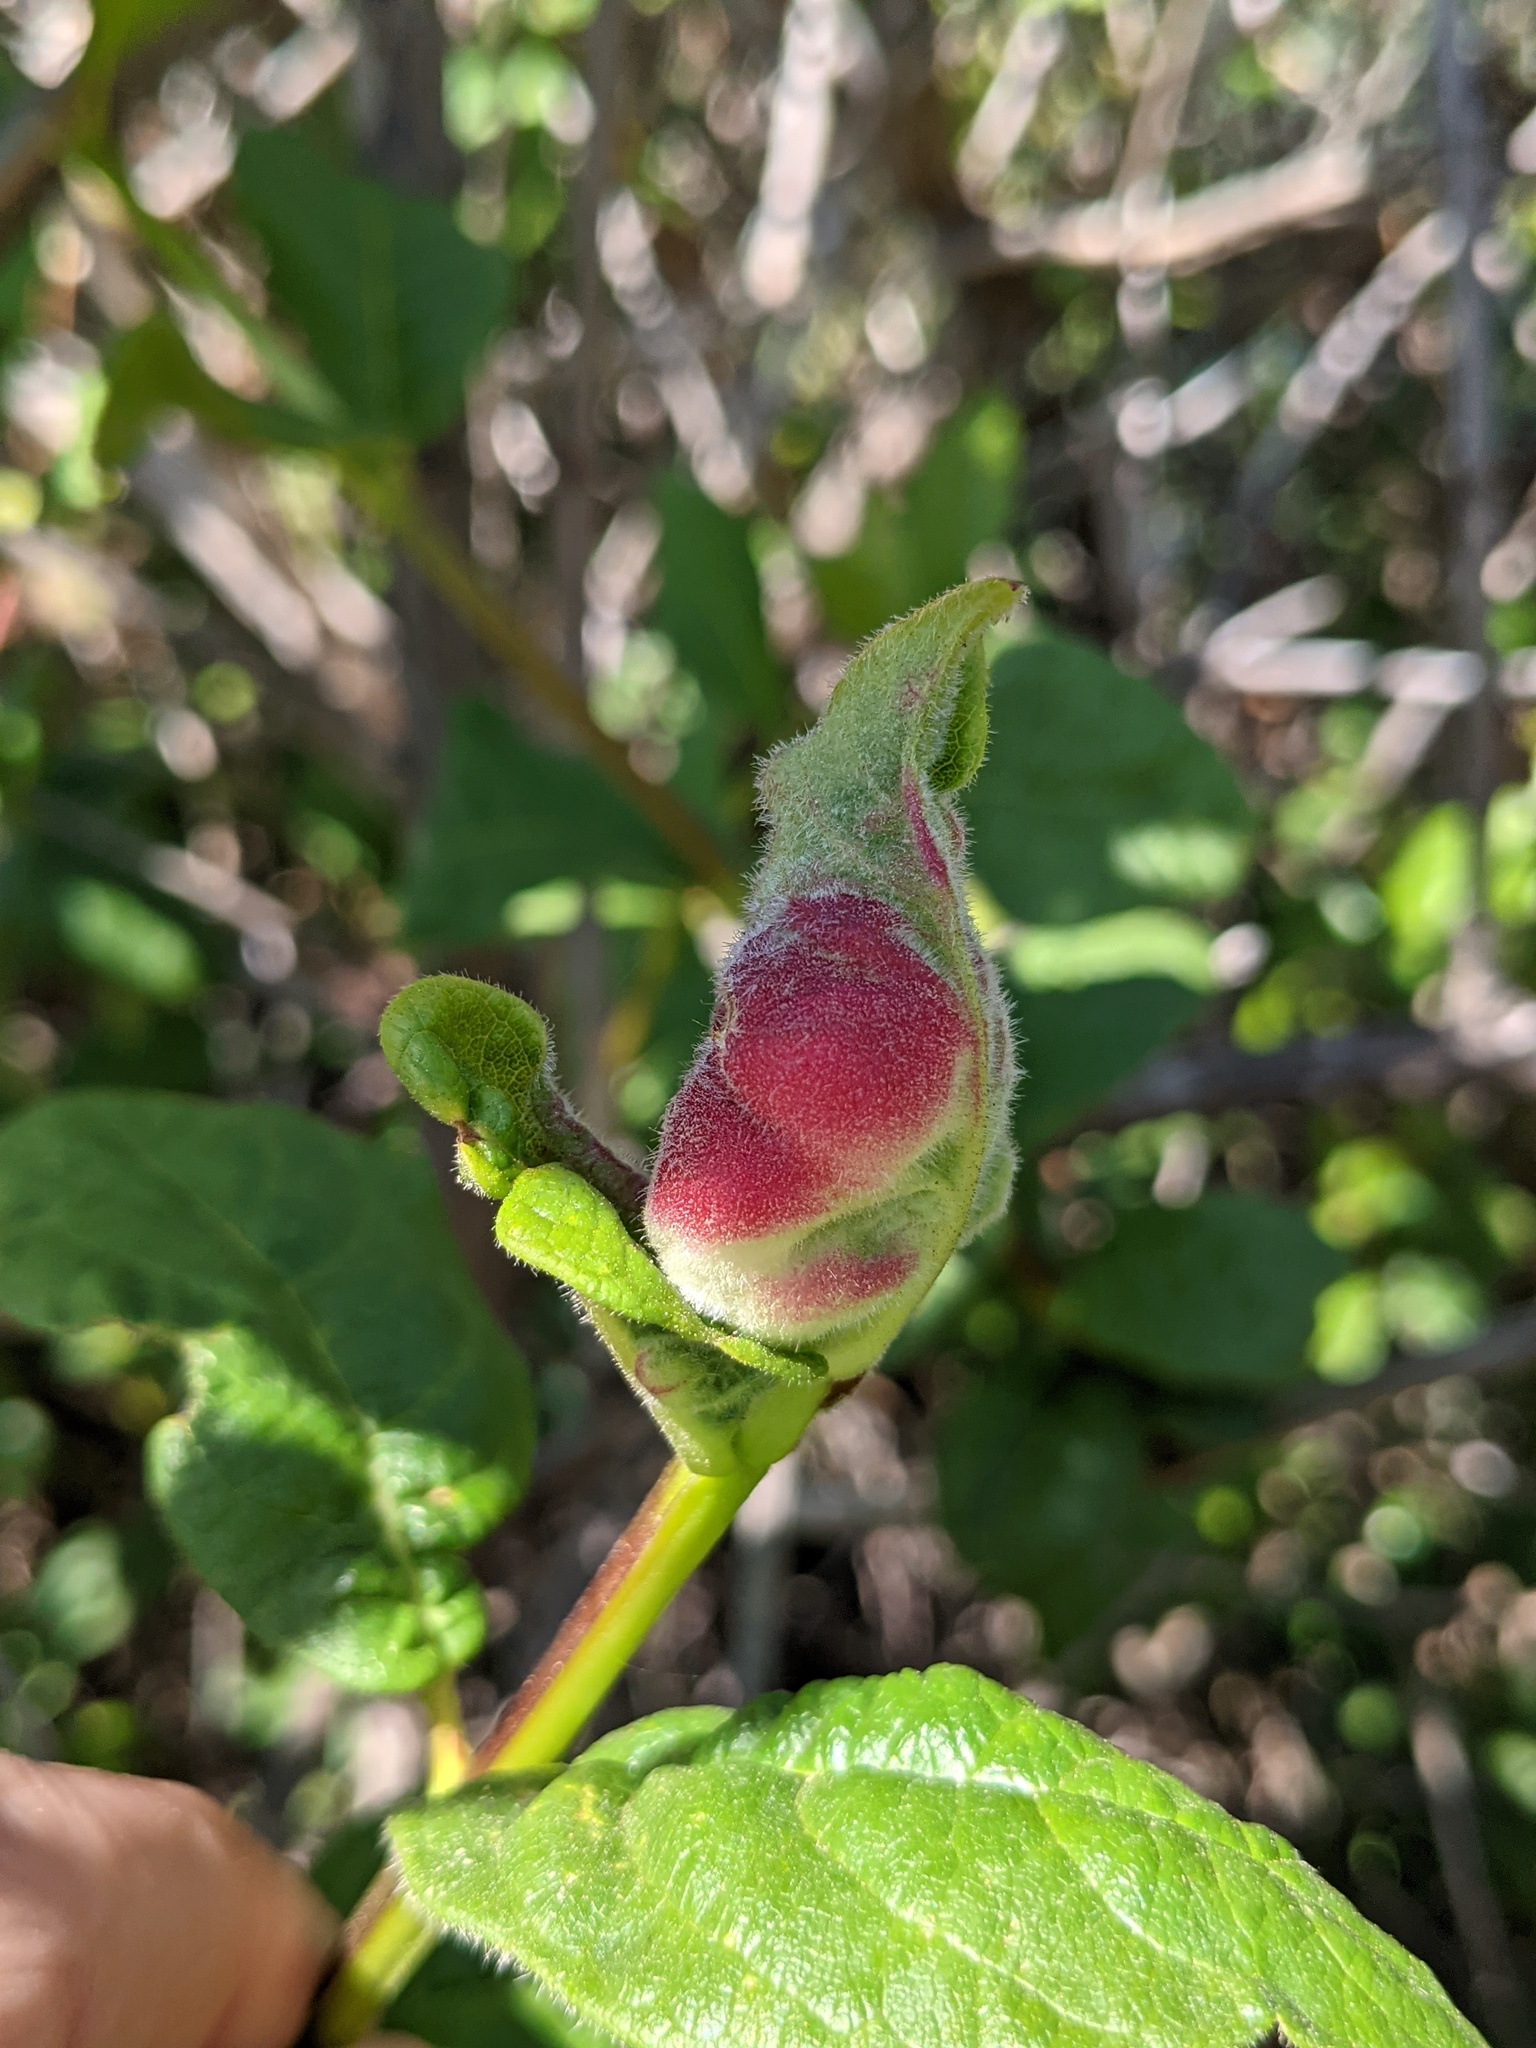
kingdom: Animalia
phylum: Arthropoda
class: Insecta
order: Diptera
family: Cecidomyiidae
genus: Dasineura
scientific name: Dasineura
